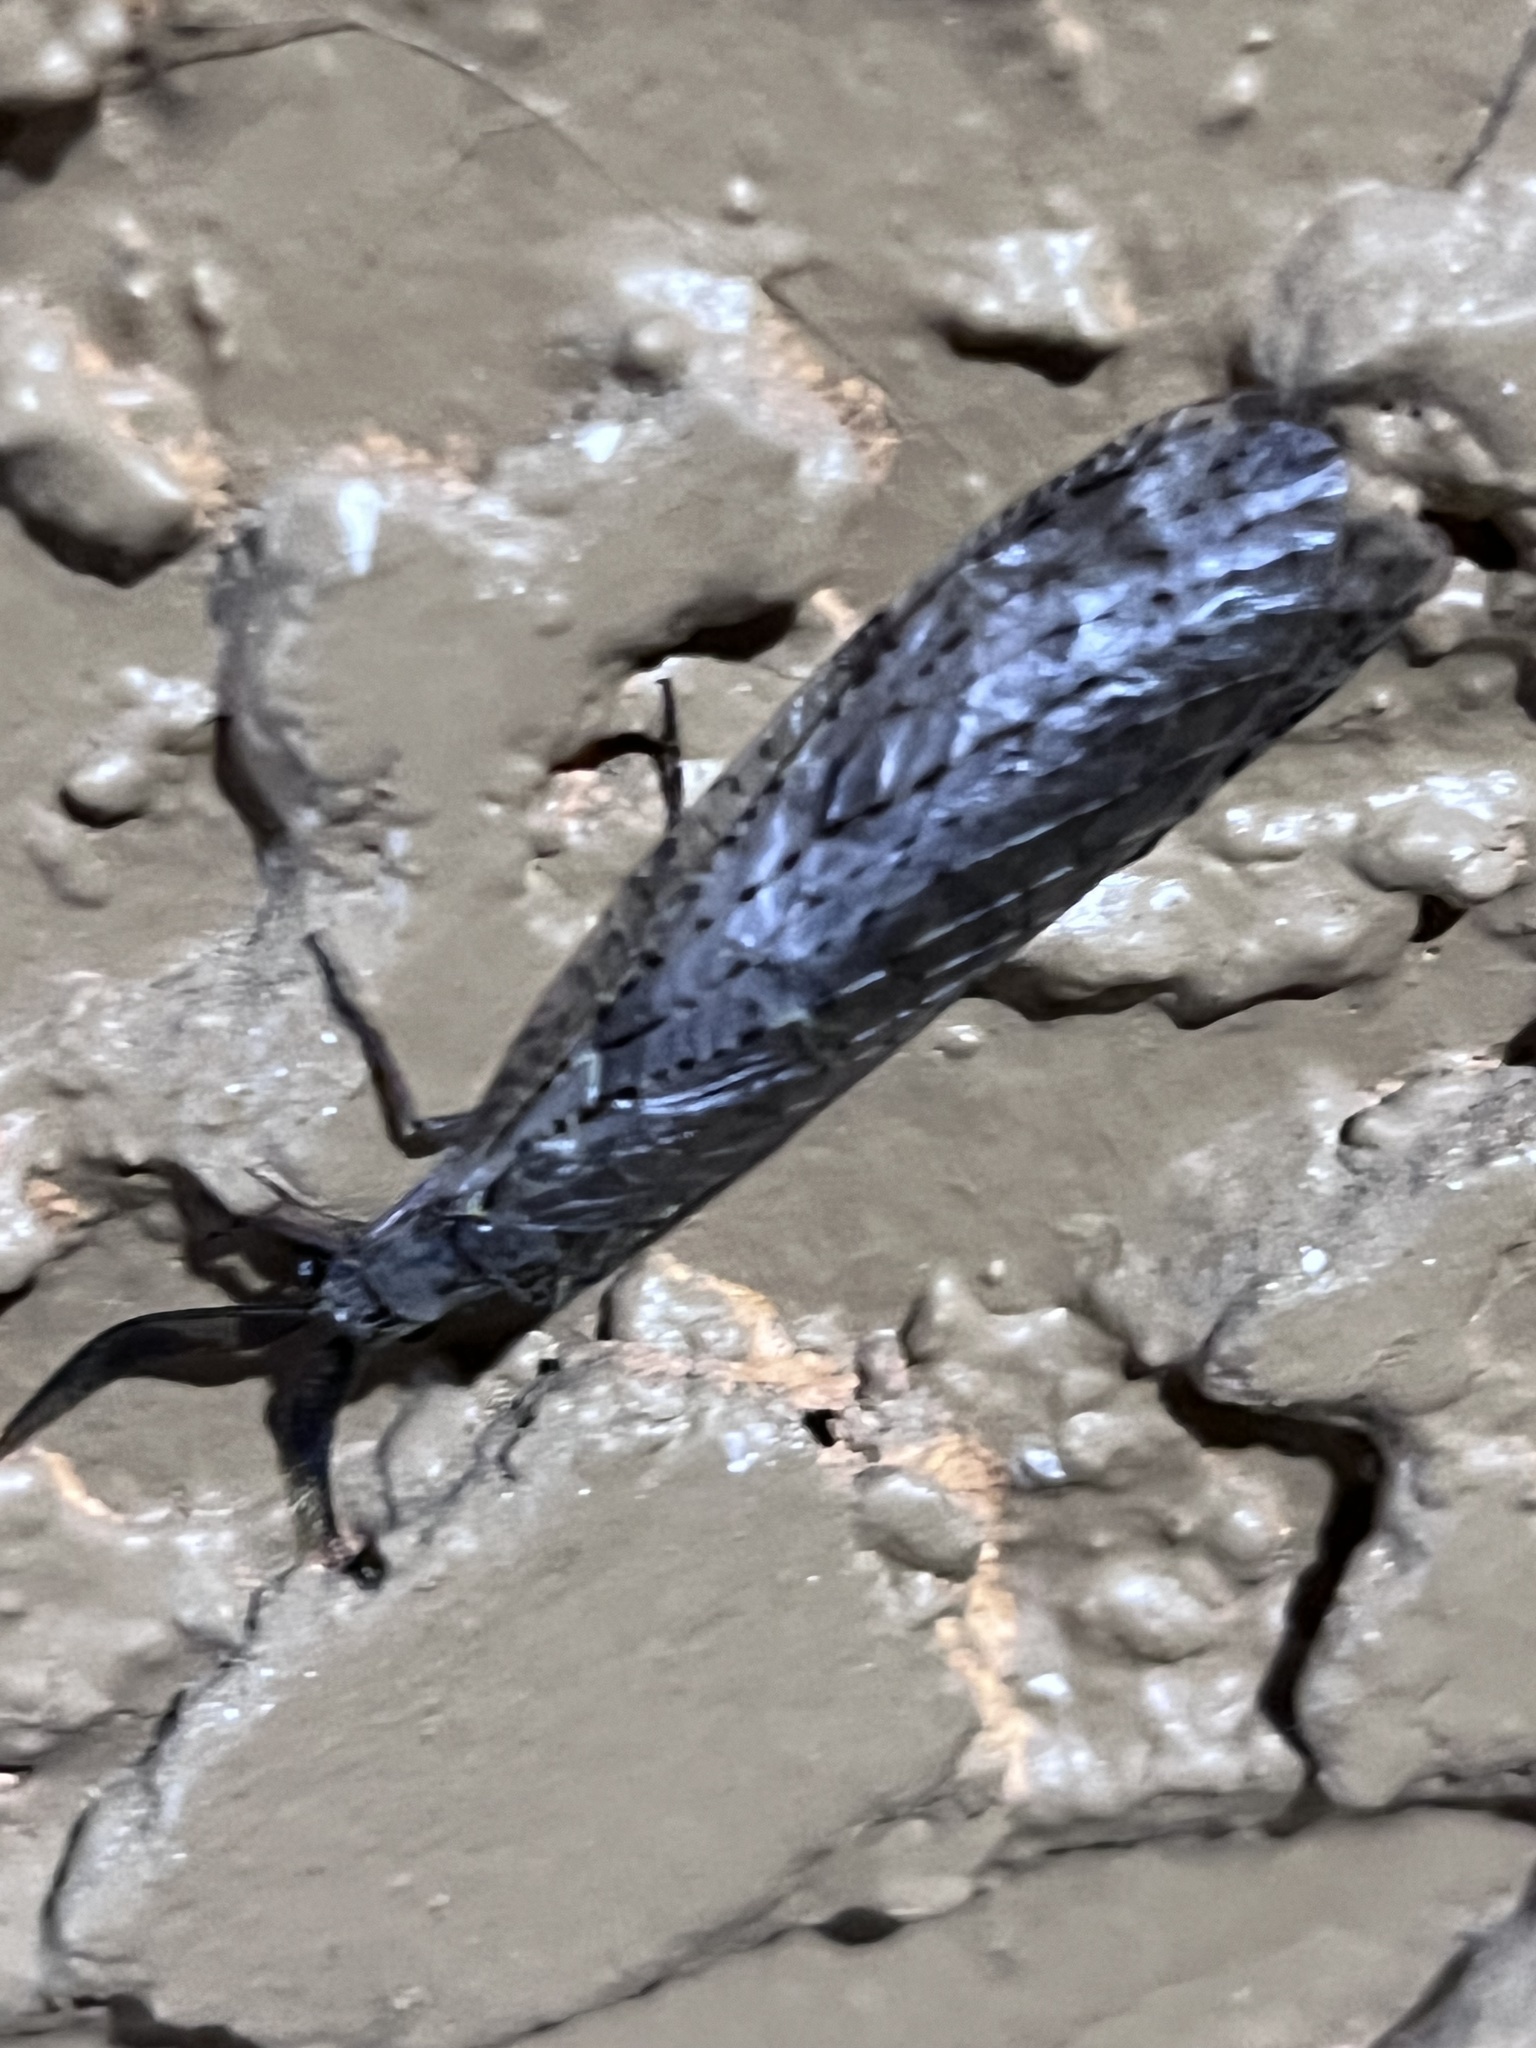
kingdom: Animalia
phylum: Arthropoda
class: Insecta
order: Megaloptera
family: Corydalidae
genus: Chauliodes
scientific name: Chauliodes rastricornis
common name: Spring fishfly
